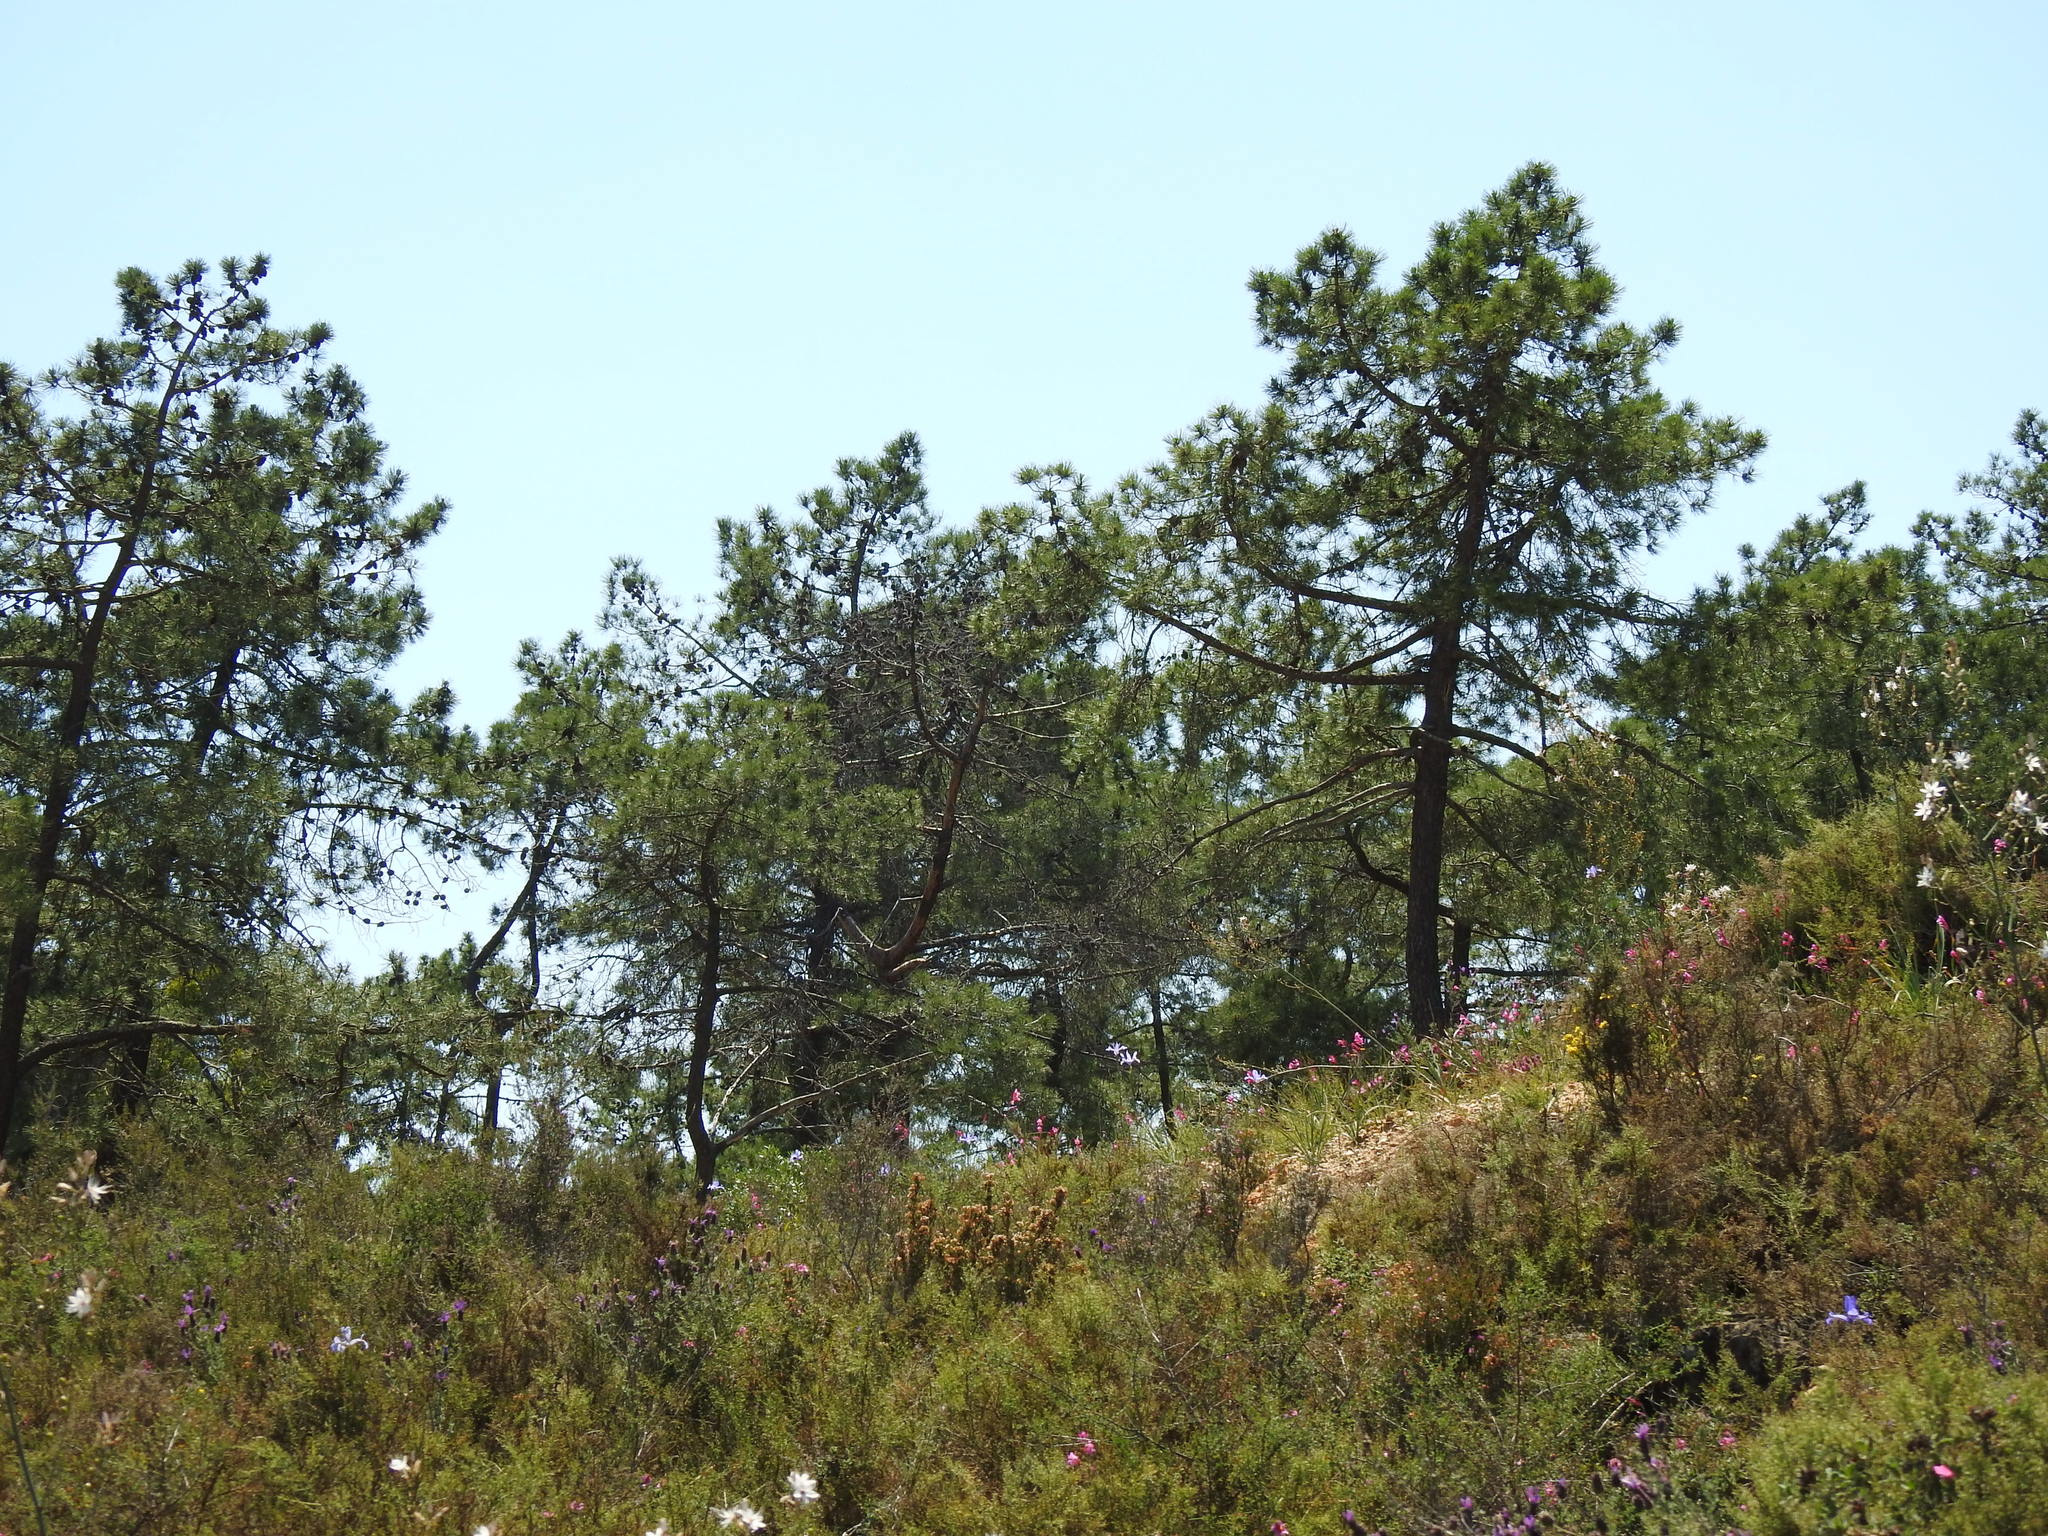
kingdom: Plantae
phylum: Tracheophyta
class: Pinopsida
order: Pinales
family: Pinaceae
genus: Pinus
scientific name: Pinus pinaster
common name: Maritime pine
